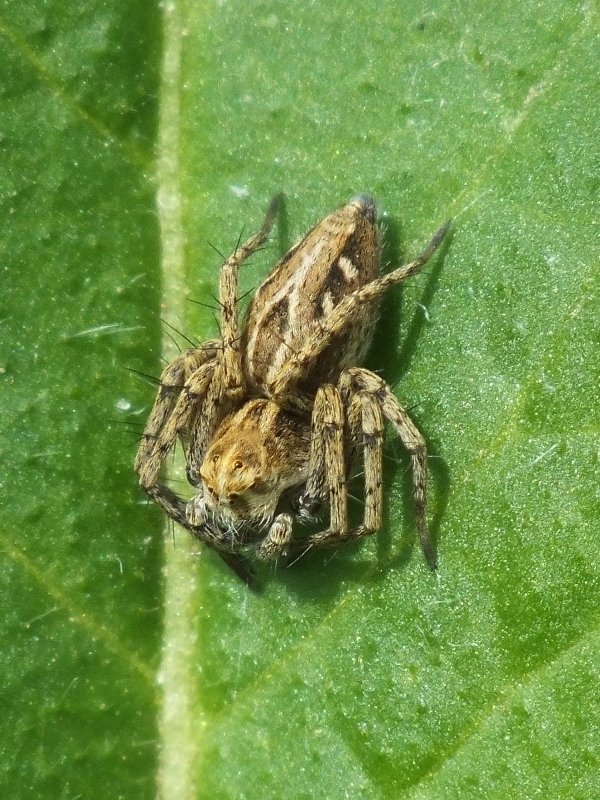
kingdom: Animalia
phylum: Arthropoda
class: Arachnida
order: Araneae
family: Oxyopidae
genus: Oxyopes
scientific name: Oxyopes heterophthalmus
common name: Lynx spider
